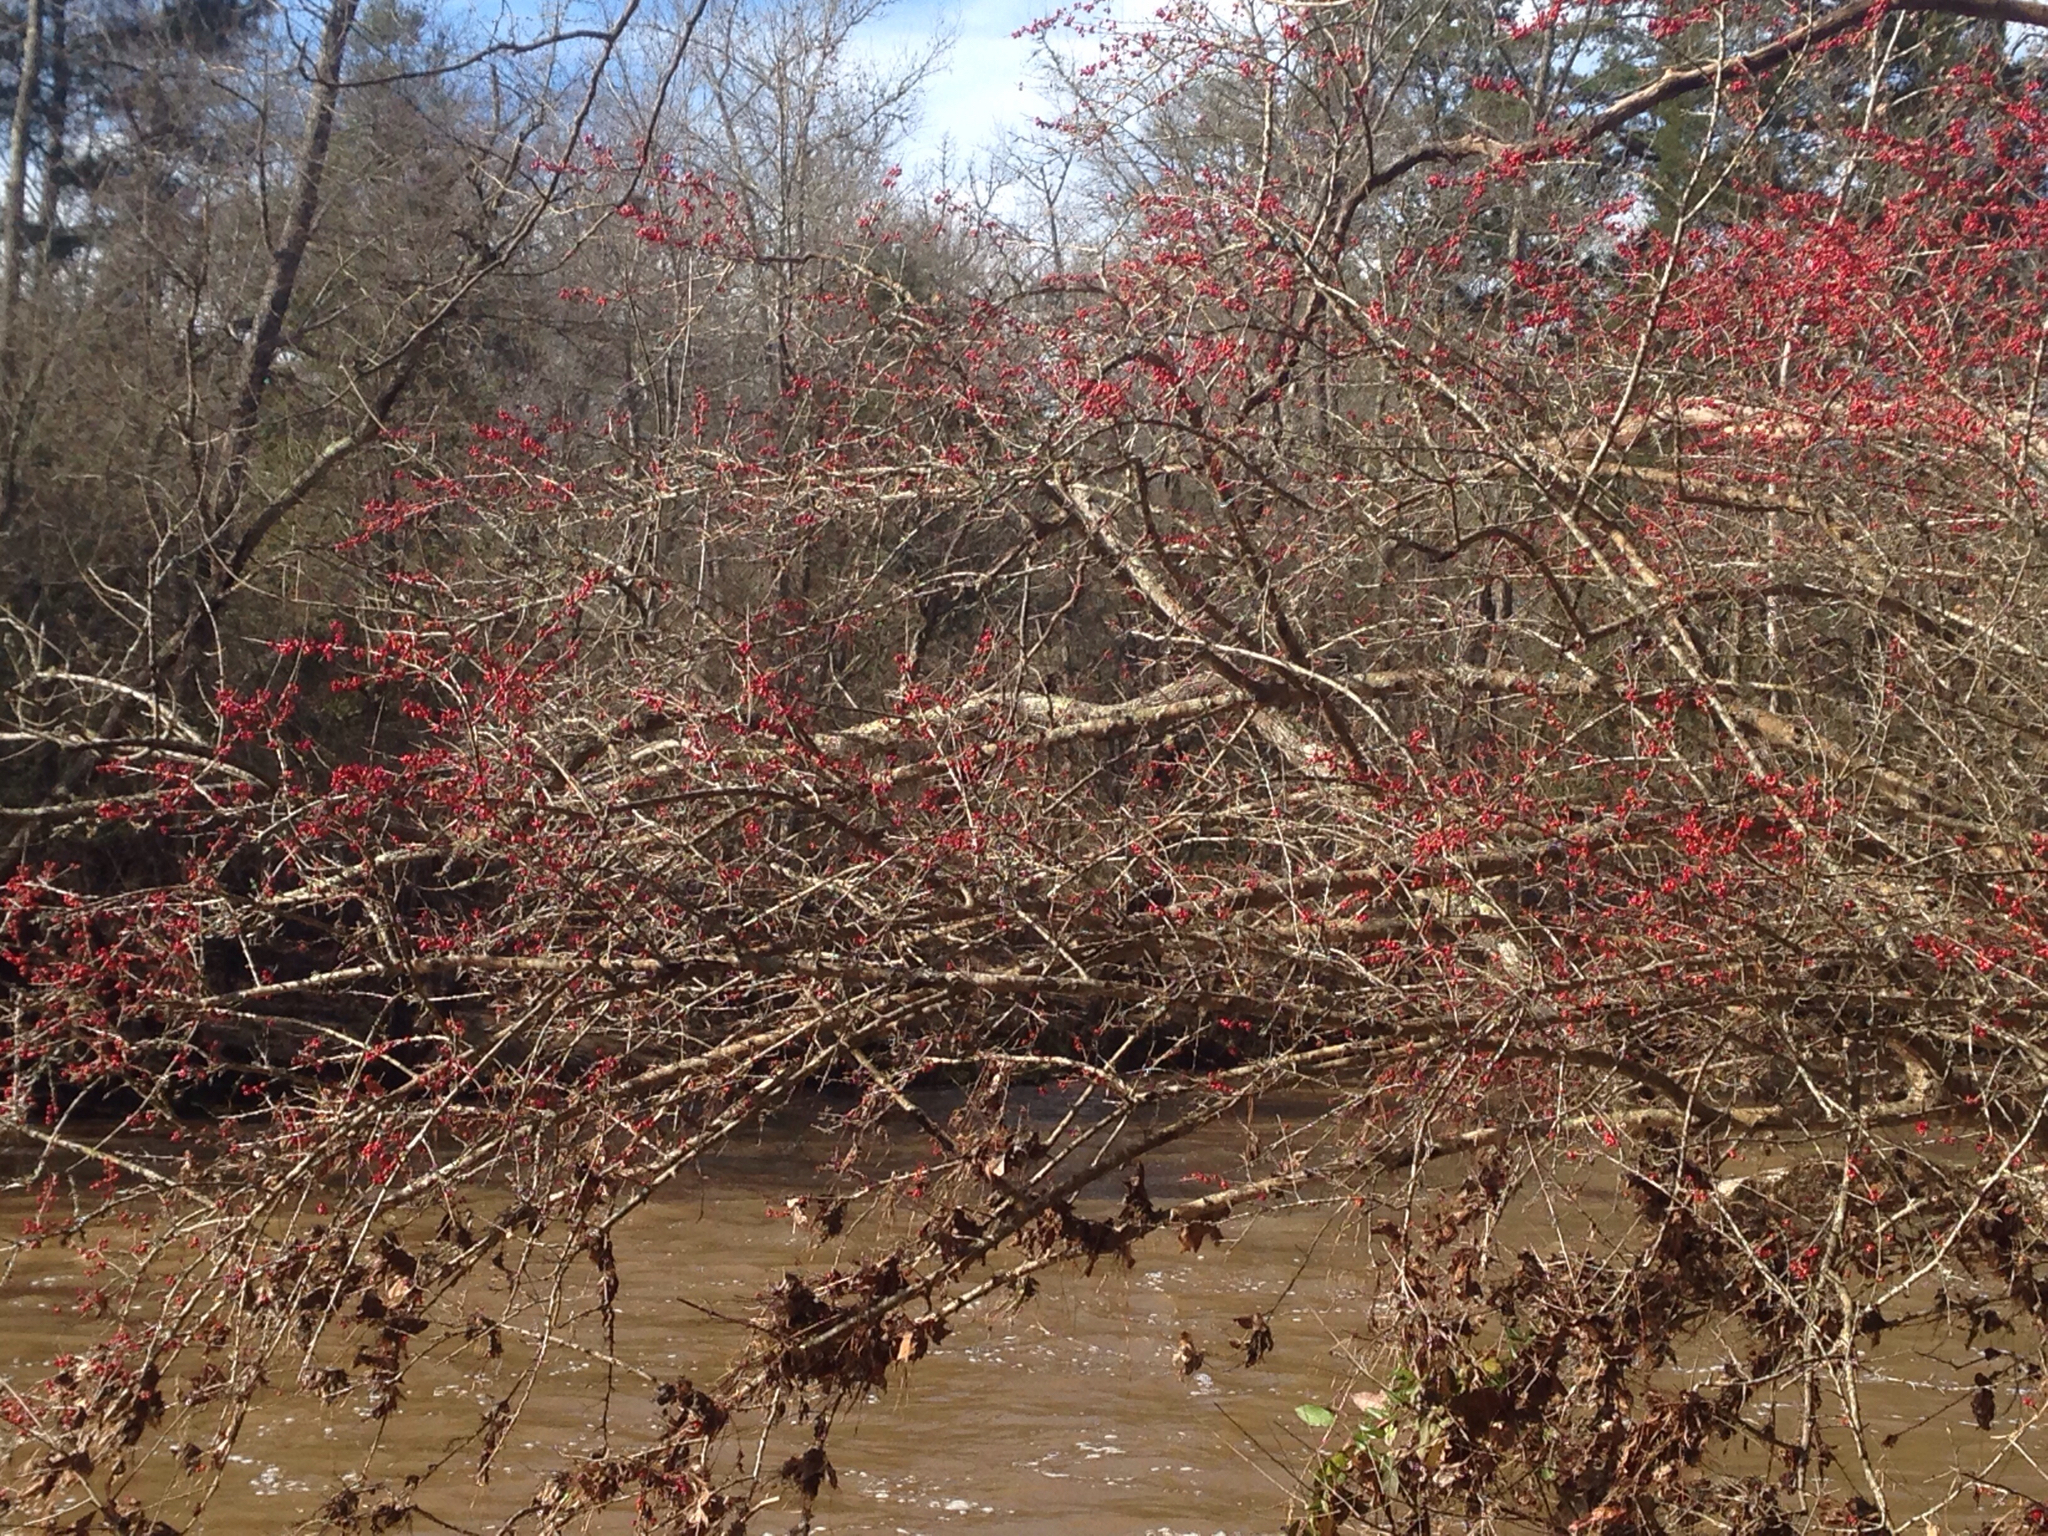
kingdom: Plantae
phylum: Tracheophyta
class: Magnoliopsida
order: Aquifoliales
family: Aquifoliaceae
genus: Ilex
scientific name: Ilex verticillata
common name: Virginia winterberry
